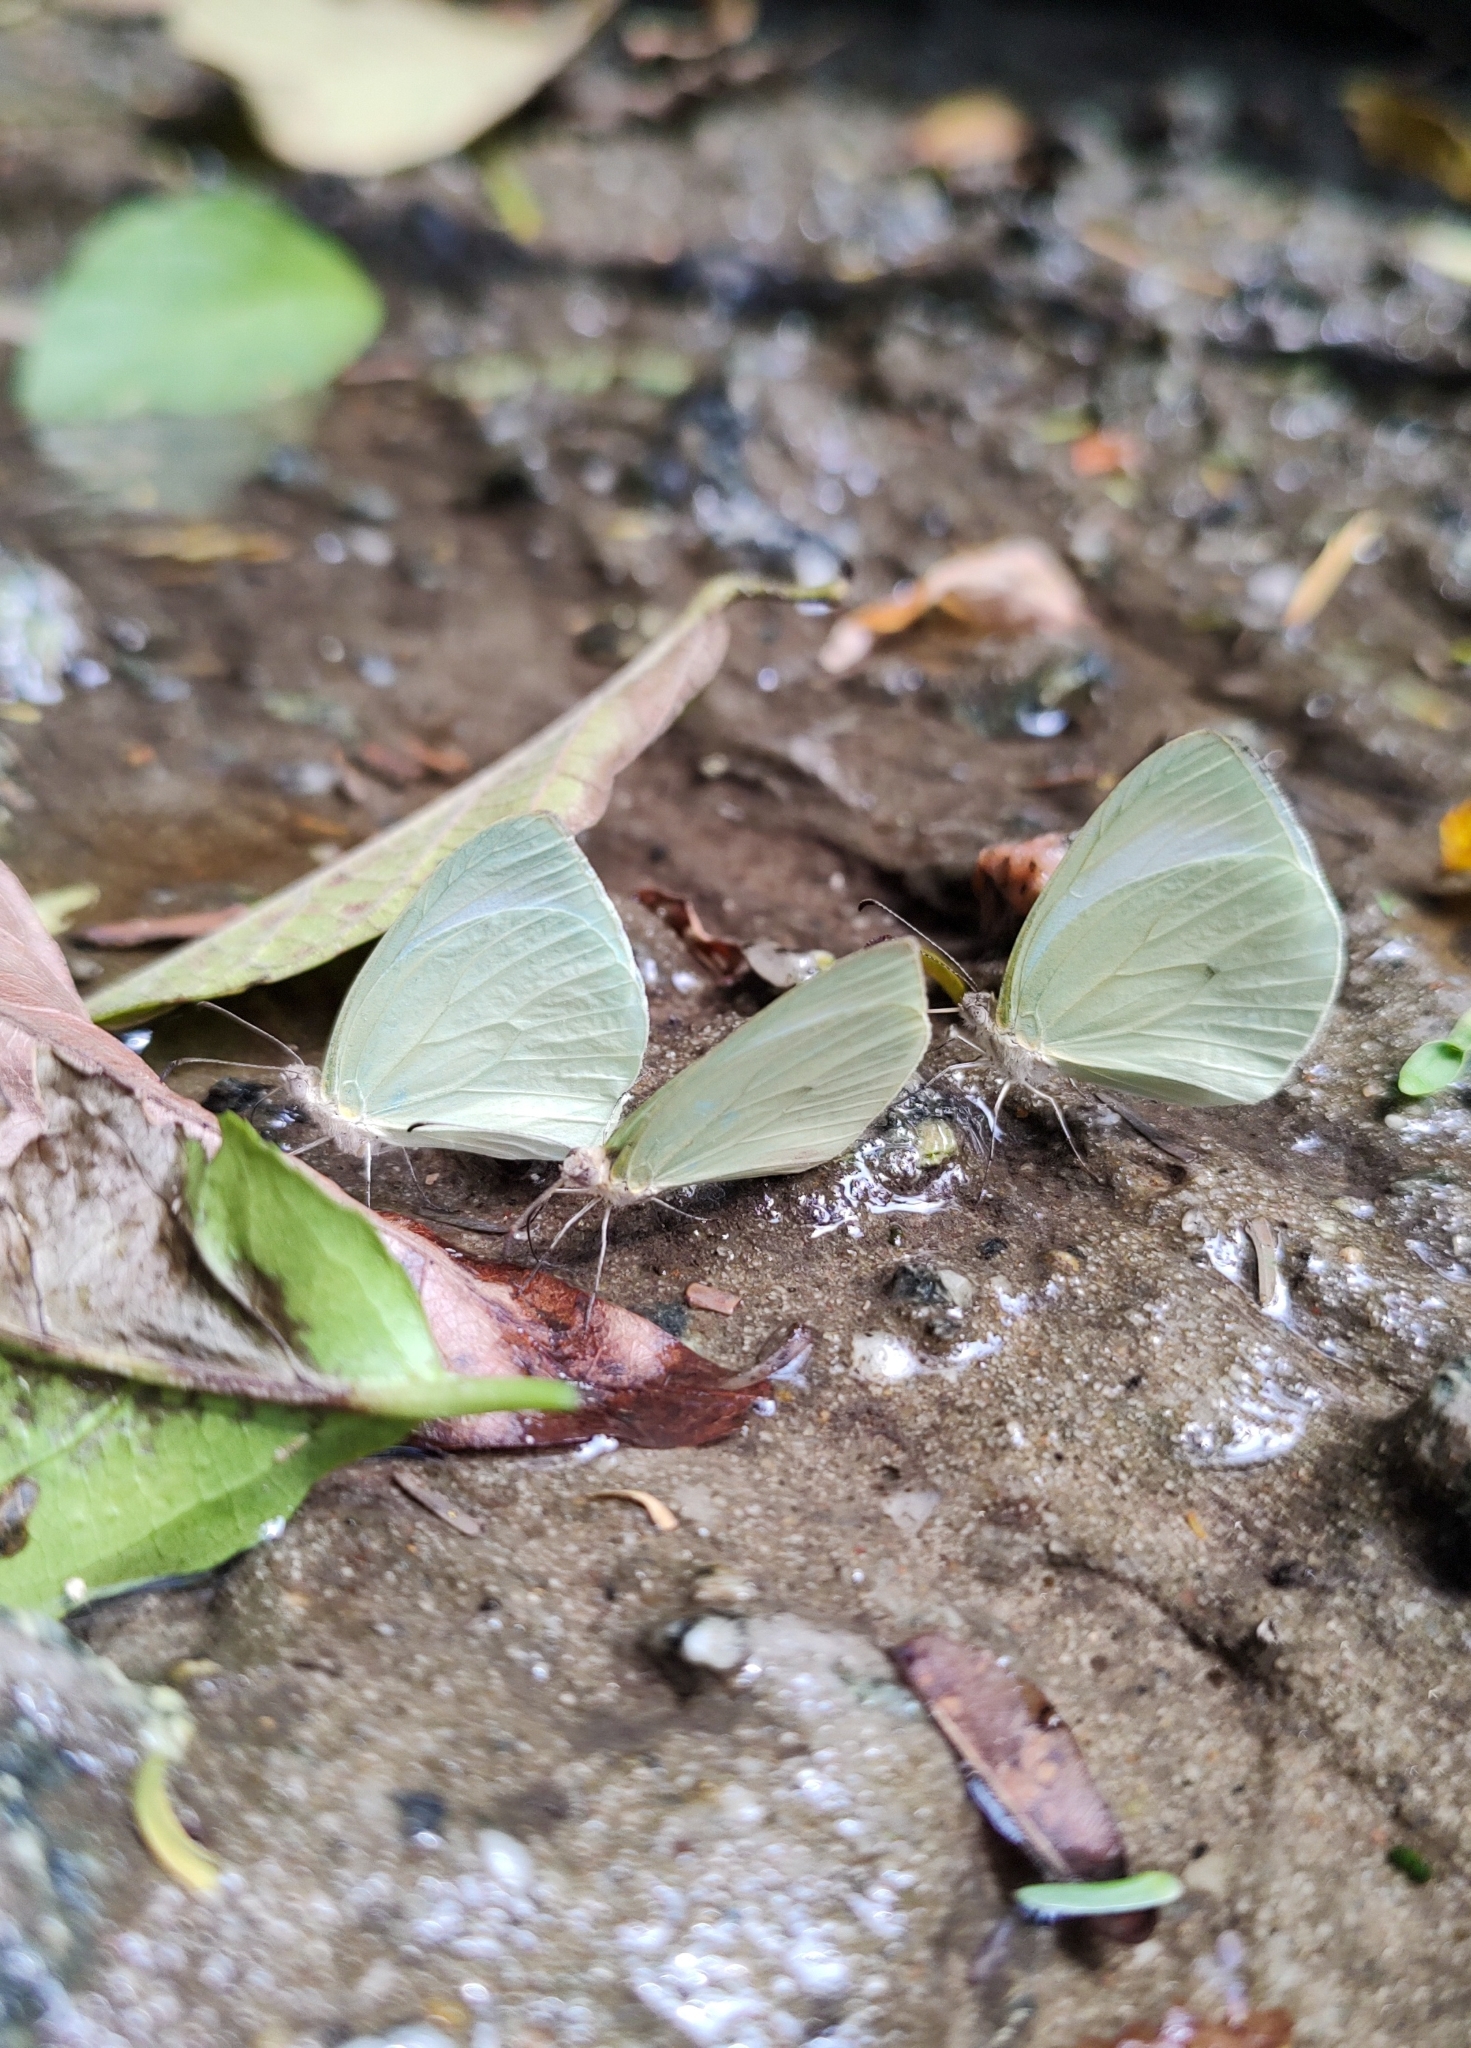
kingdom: Animalia
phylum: Arthropoda
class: Insecta
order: Lepidoptera
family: Pieridae
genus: Pseudopieris
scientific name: Pseudopieris nehemia
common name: Clean mimic-white
